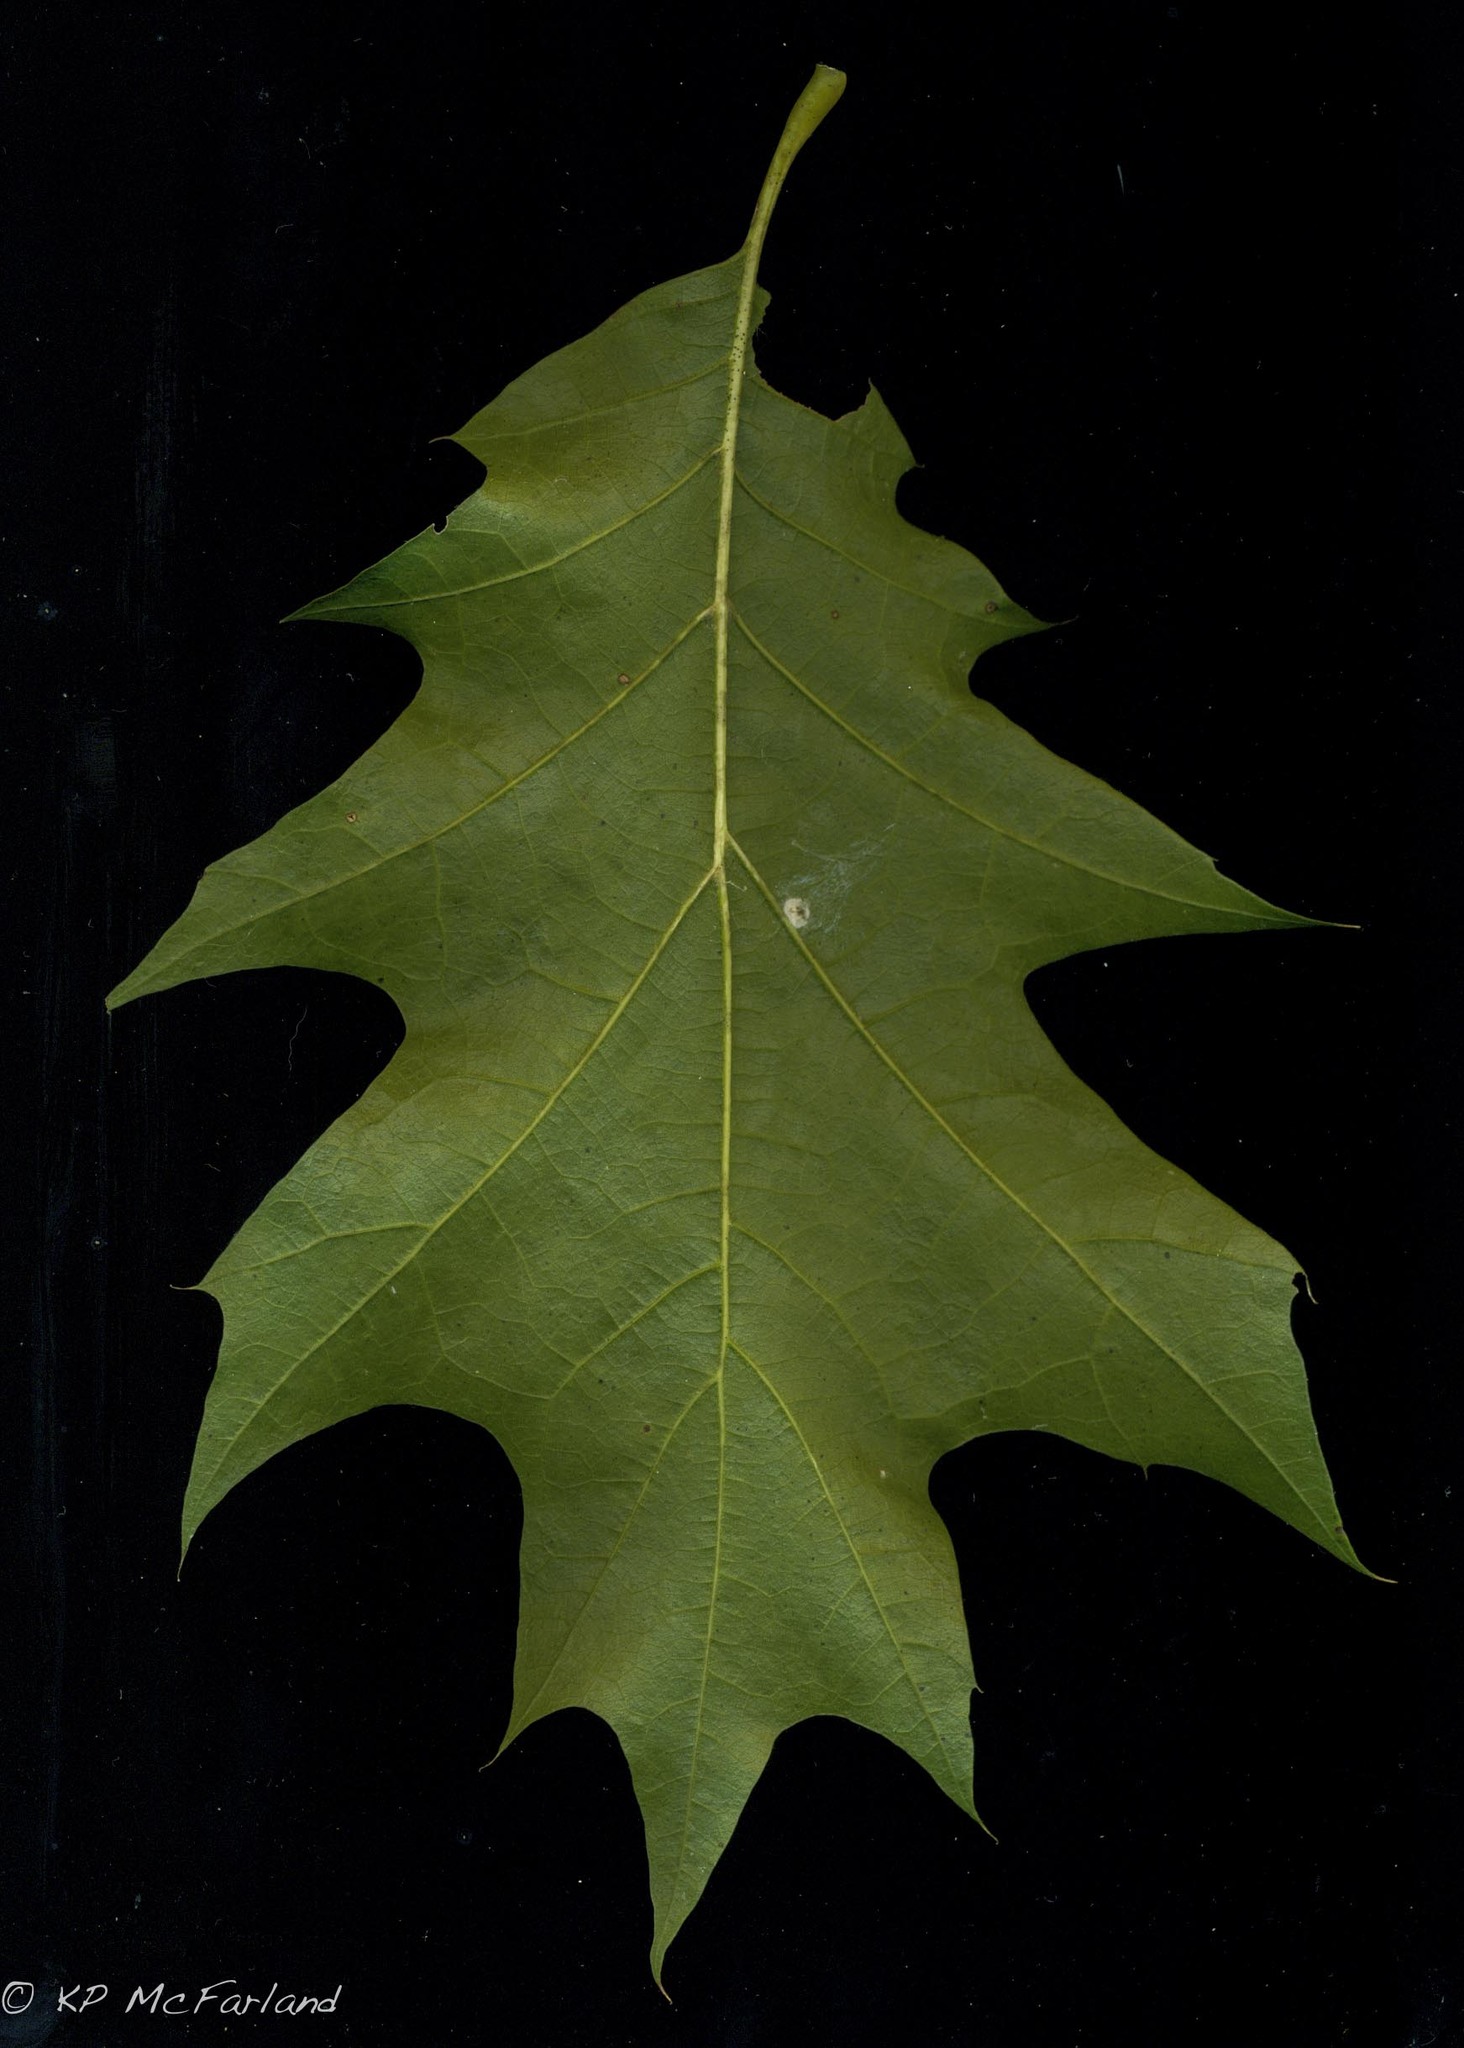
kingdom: Plantae
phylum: Tracheophyta
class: Magnoliopsida
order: Fagales
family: Fagaceae
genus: Quercus
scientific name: Quercus rubra
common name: Red oak
